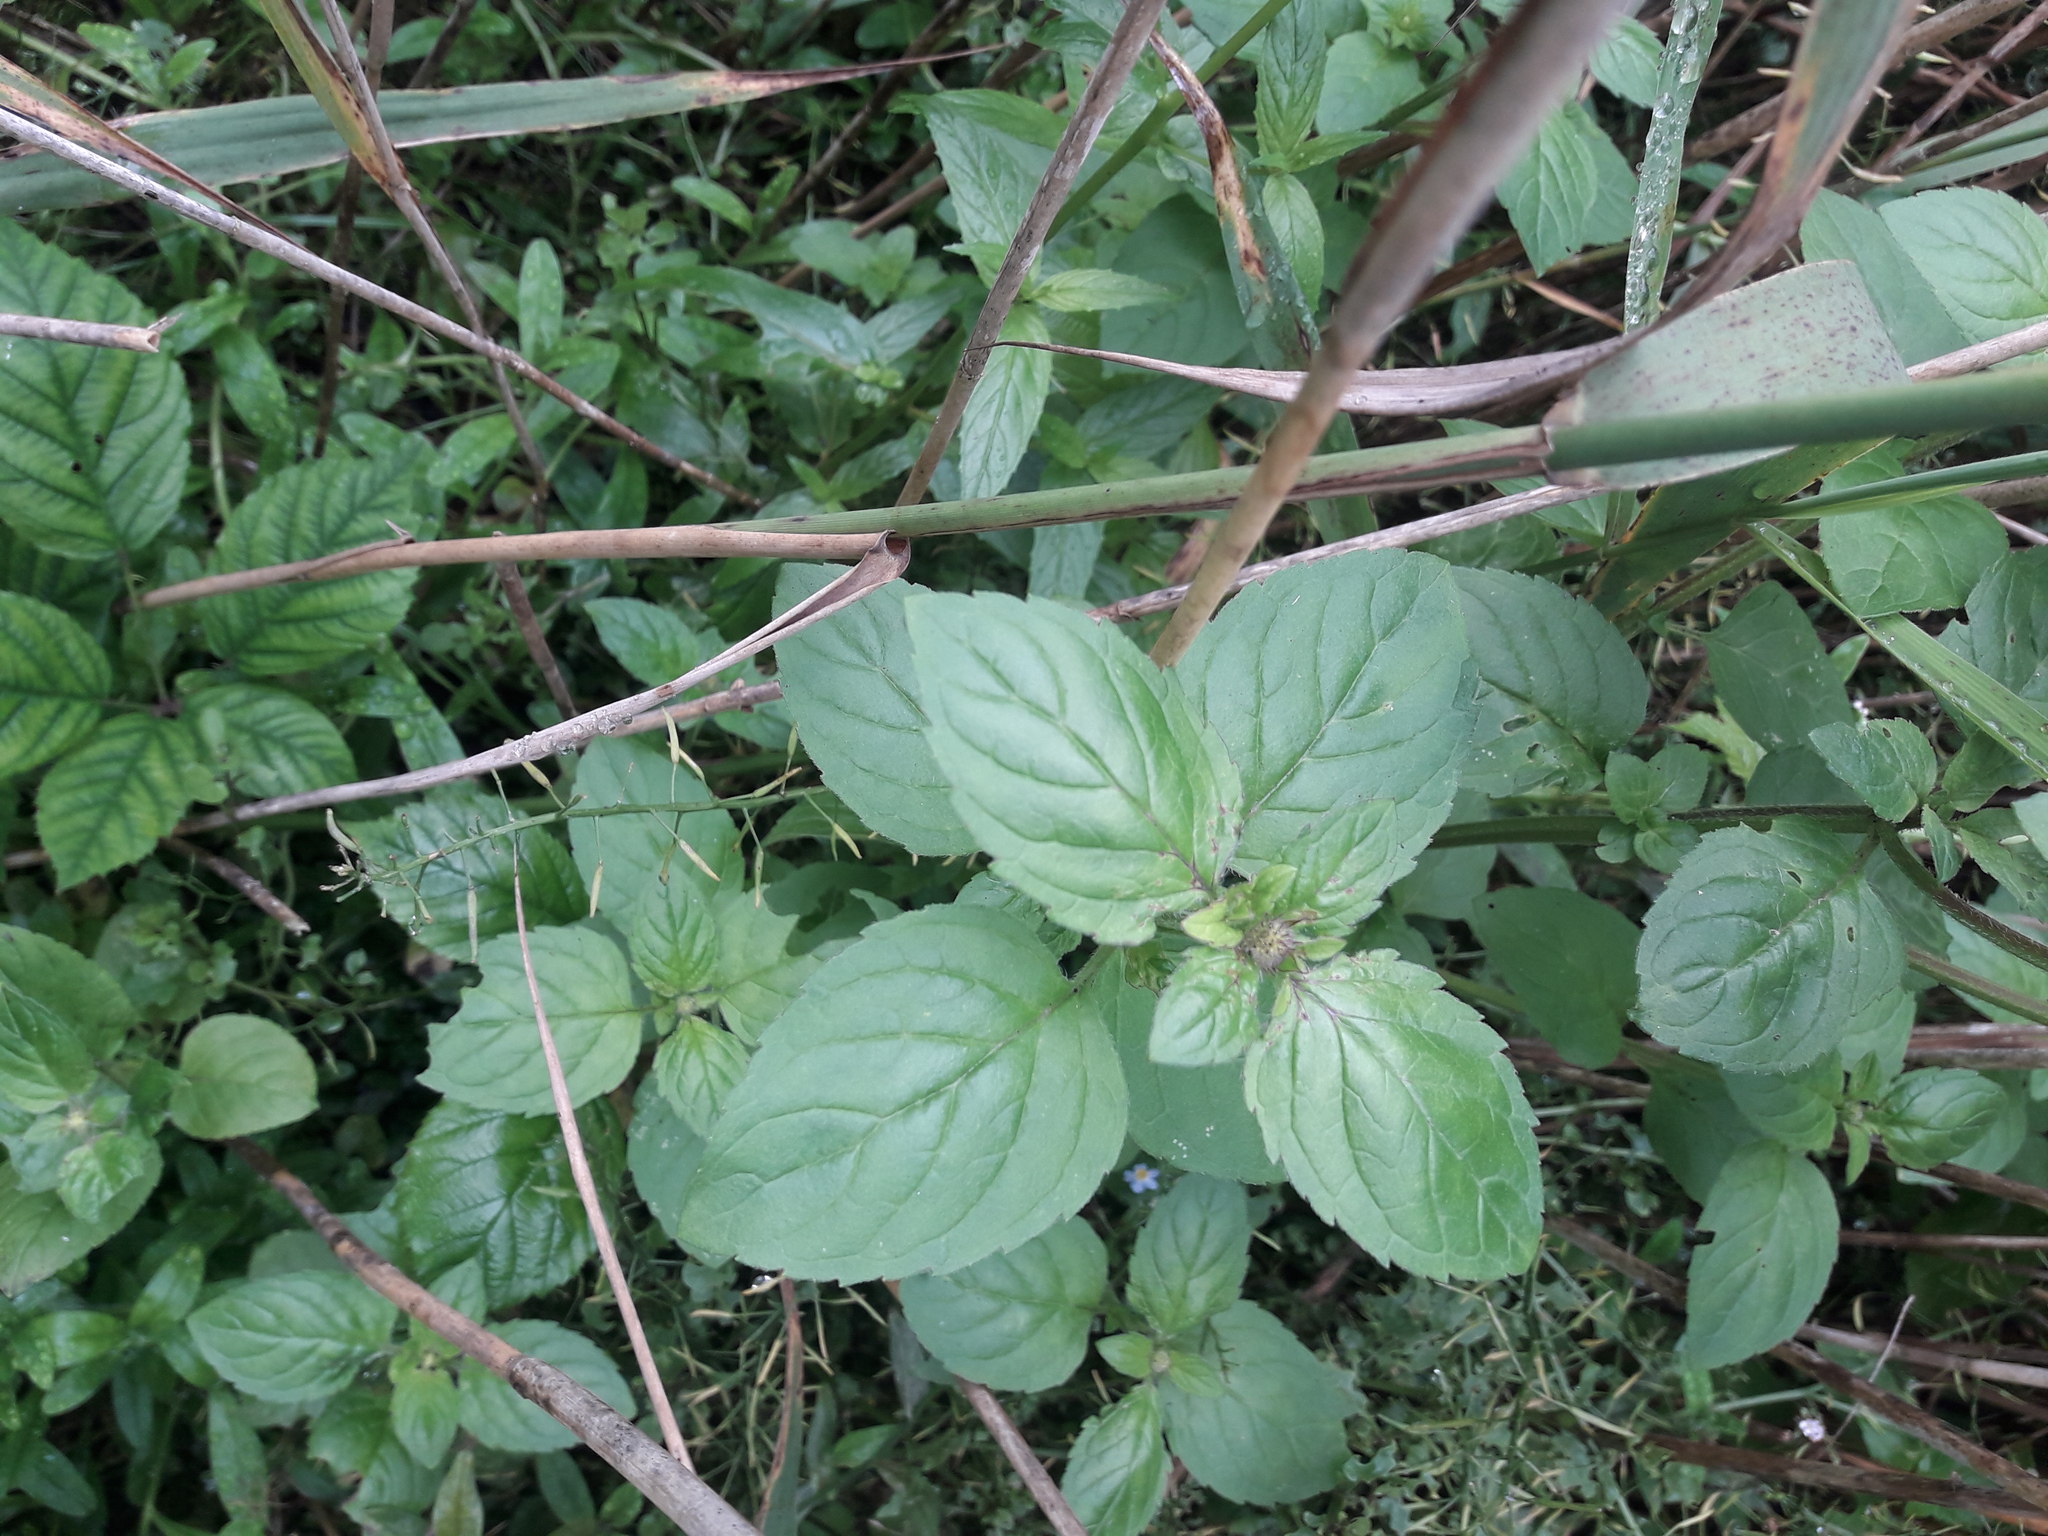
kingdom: Plantae
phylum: Tracheophyta
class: Liliopsida
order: Poales
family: Poaceae
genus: Phragmites
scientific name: Phragmites australis
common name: Common reed
